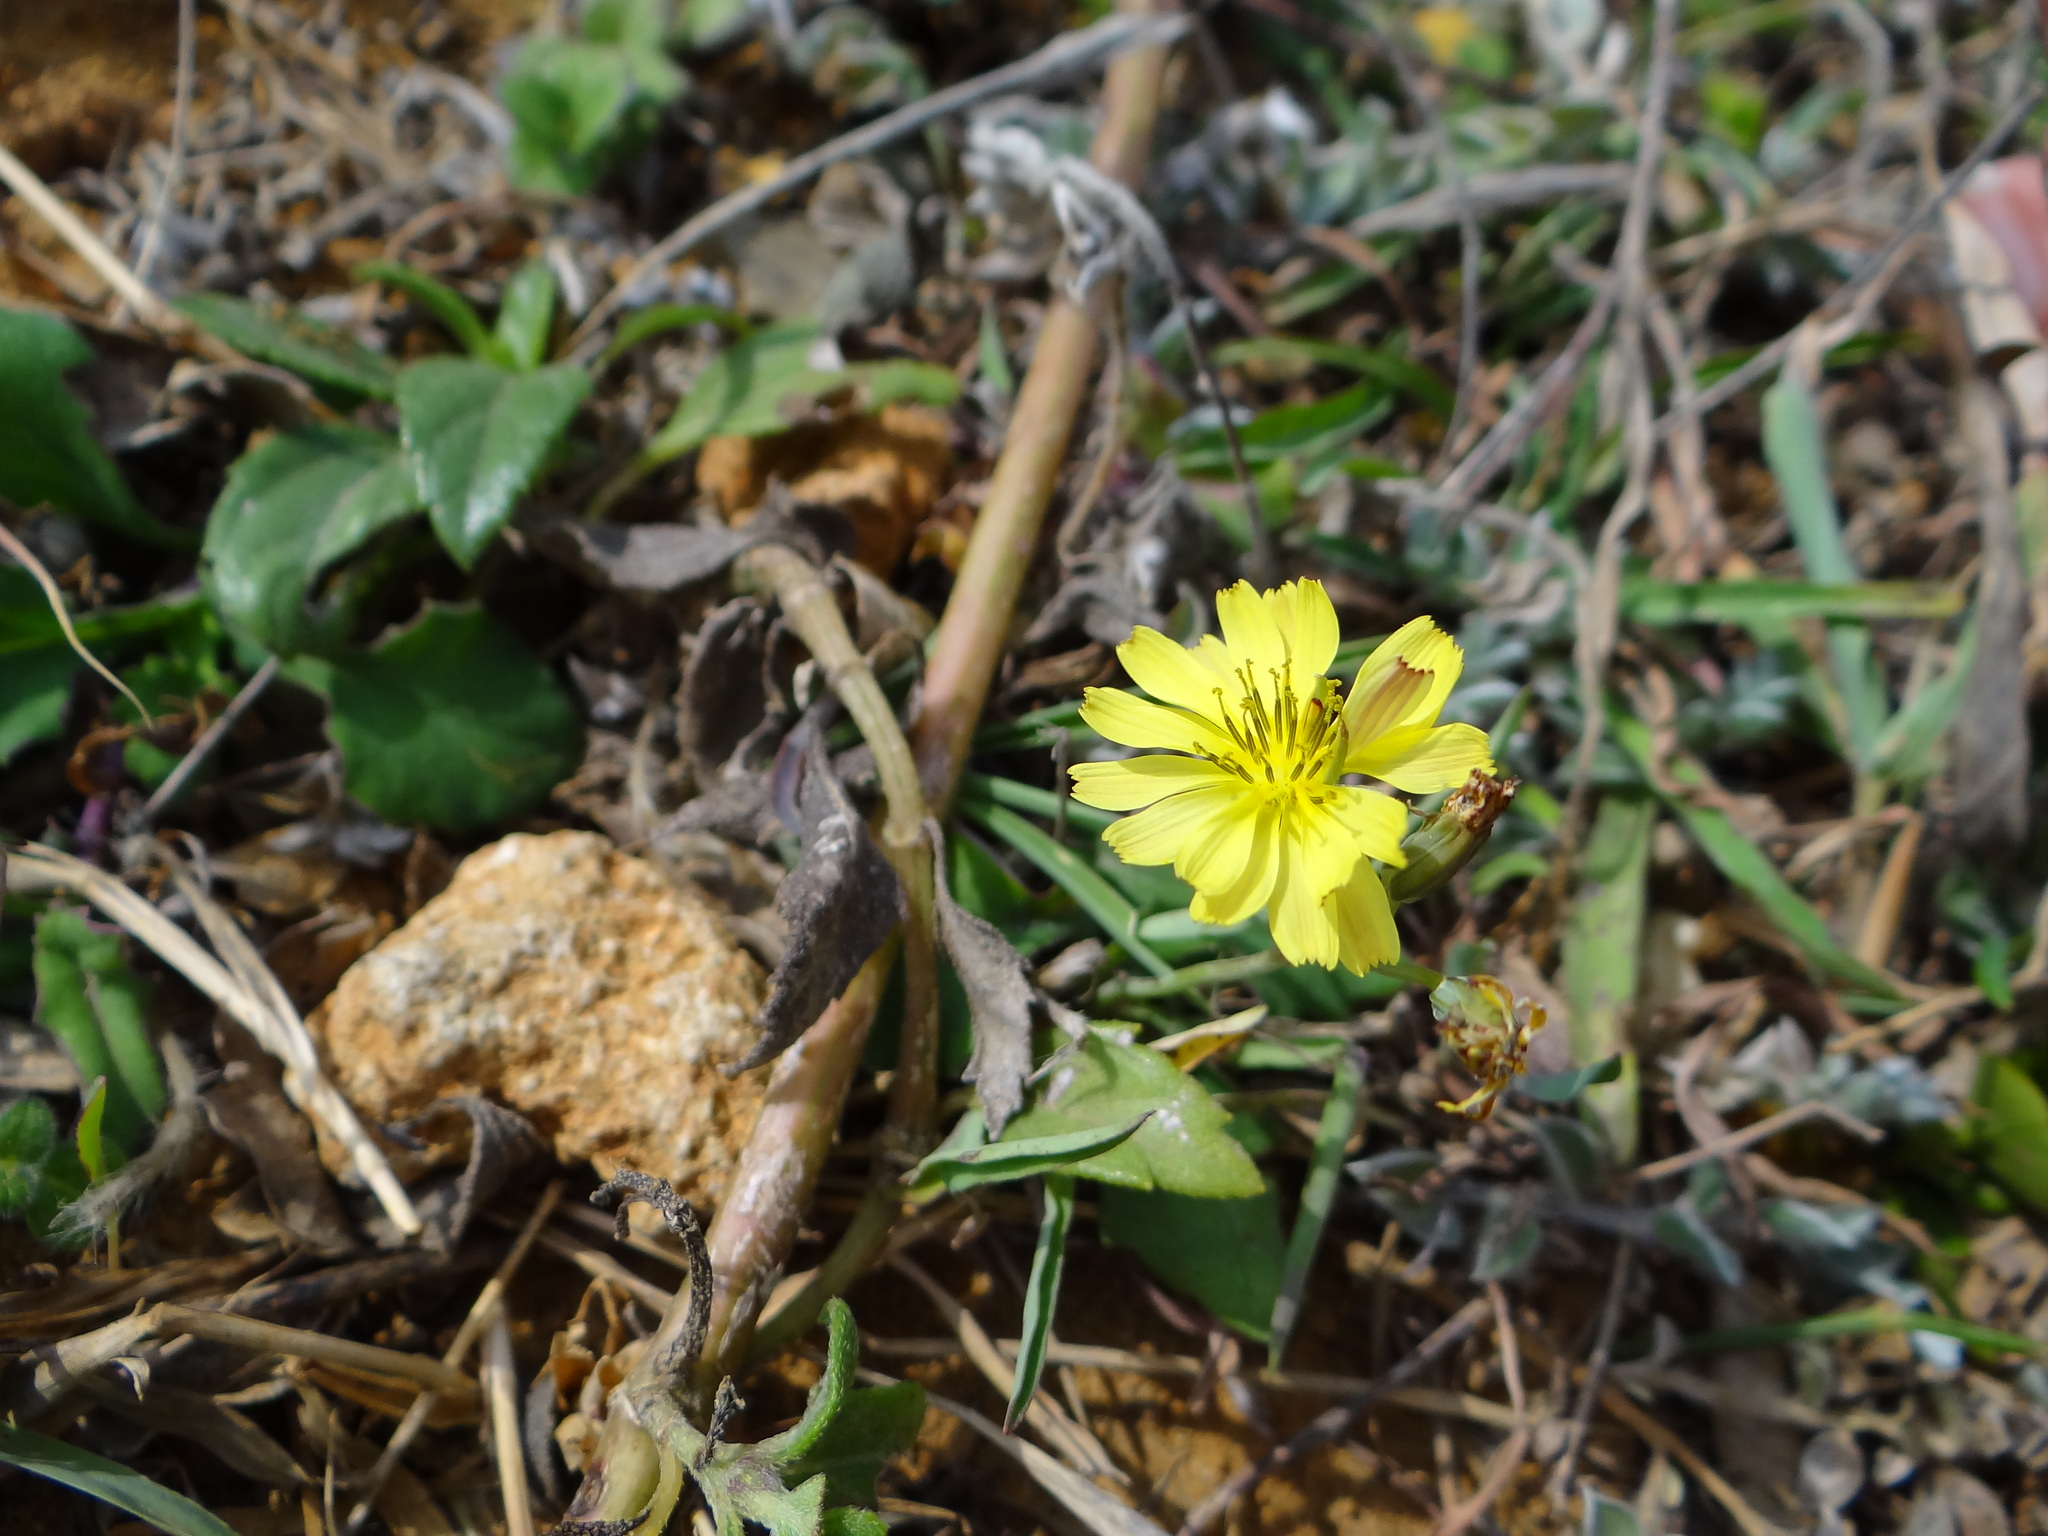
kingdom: Plantae
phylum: Tracheophyta
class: Magnoliopsida
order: Asterales
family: Asteraceae
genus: Ixeris
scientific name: Ixeris chinensis
